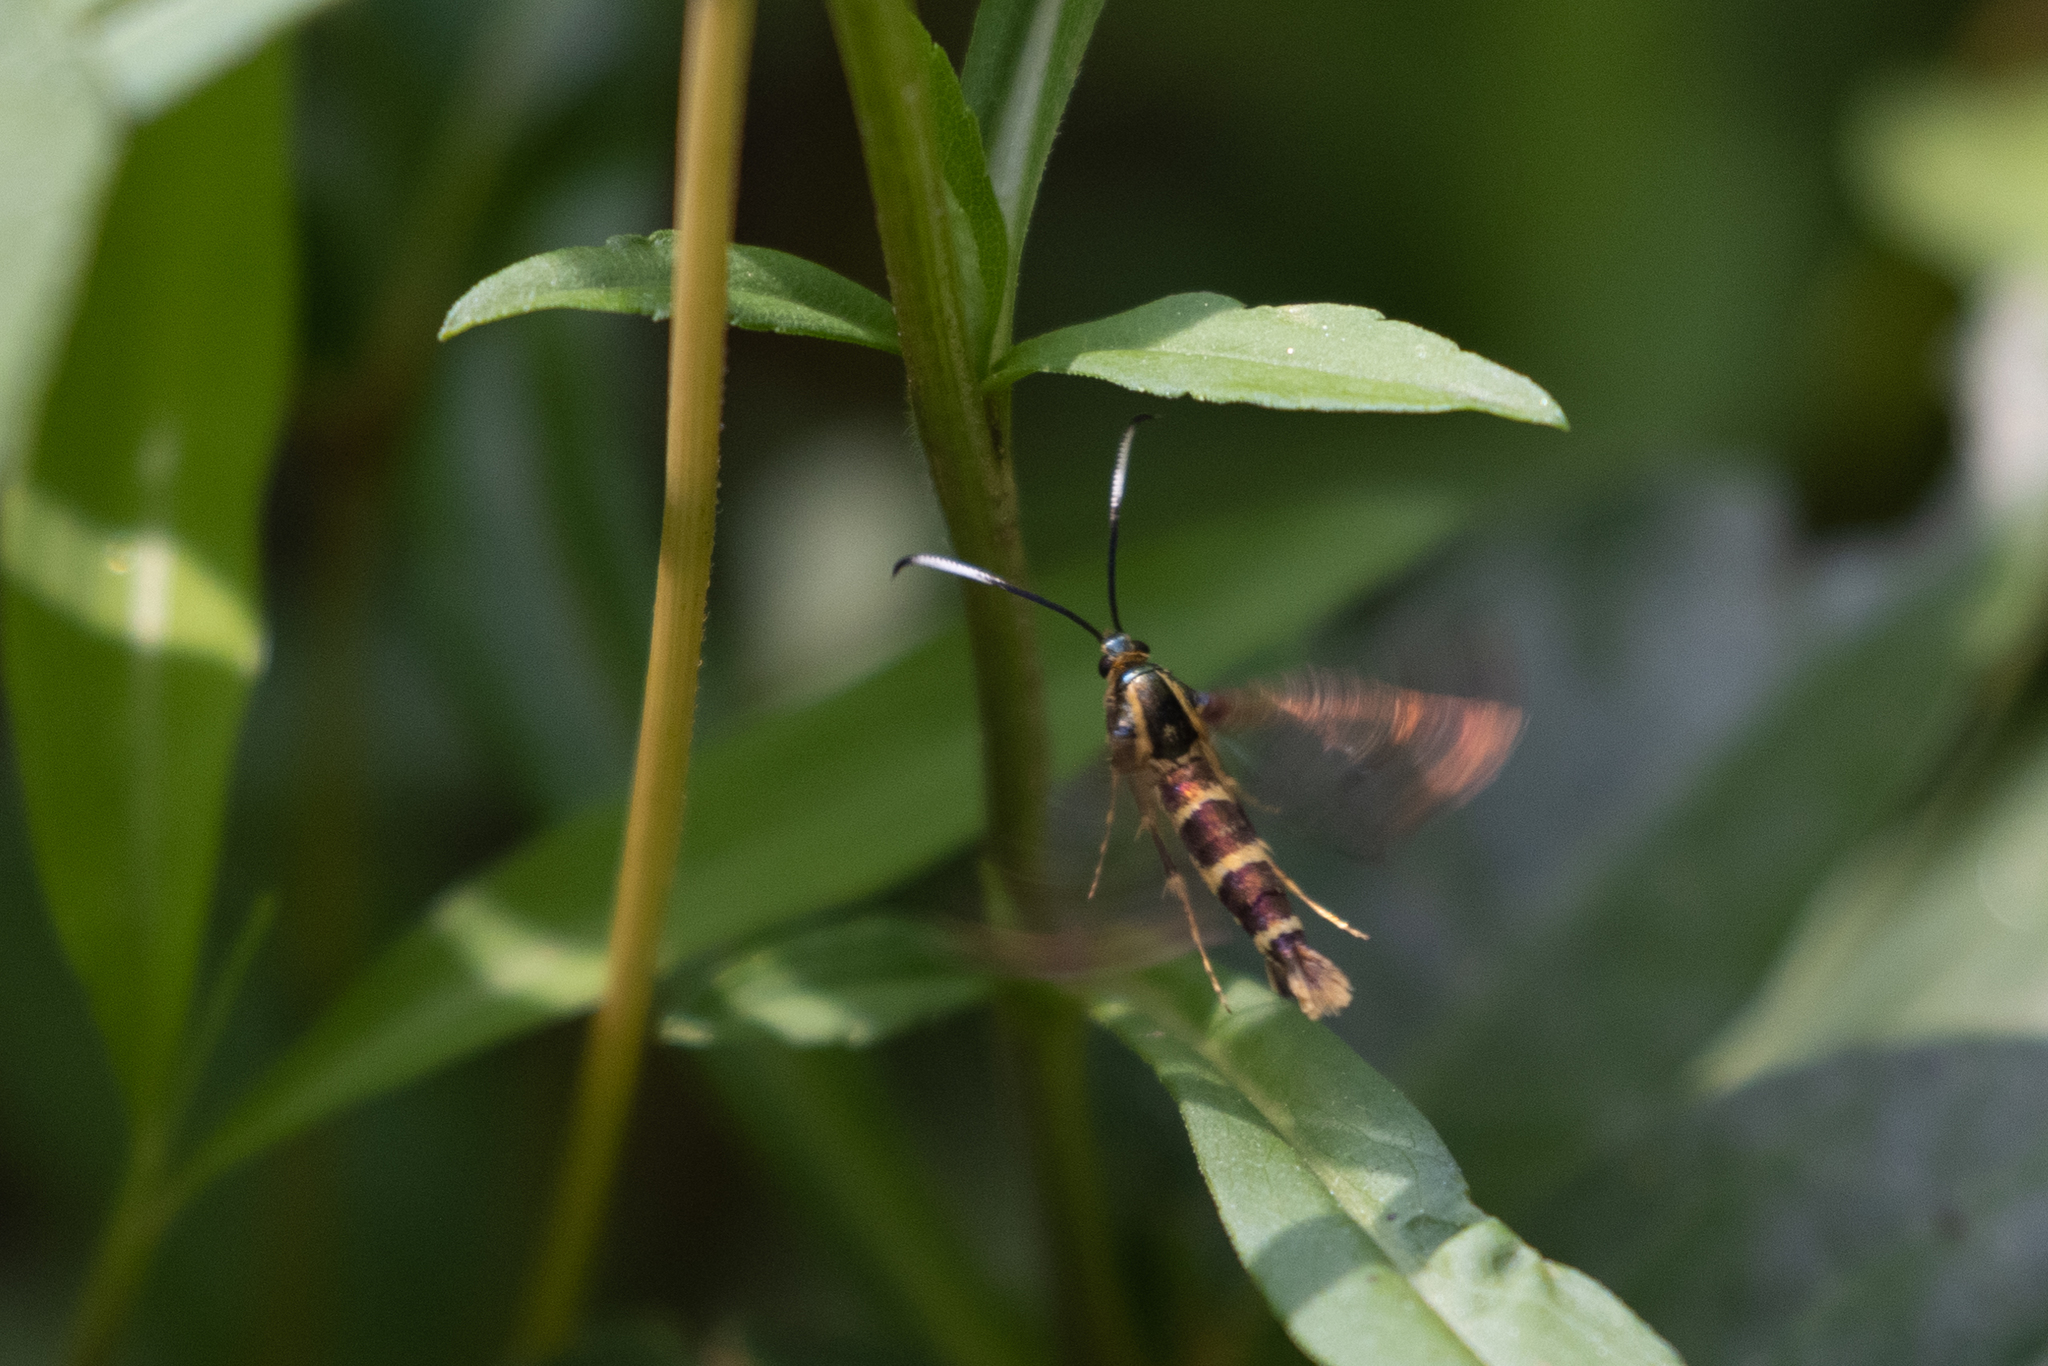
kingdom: Animalia
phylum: Arthropoda
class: Insecta
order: Lepidoptera
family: Sesiidae
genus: Carmenta
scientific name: Carmenta bassiformis
